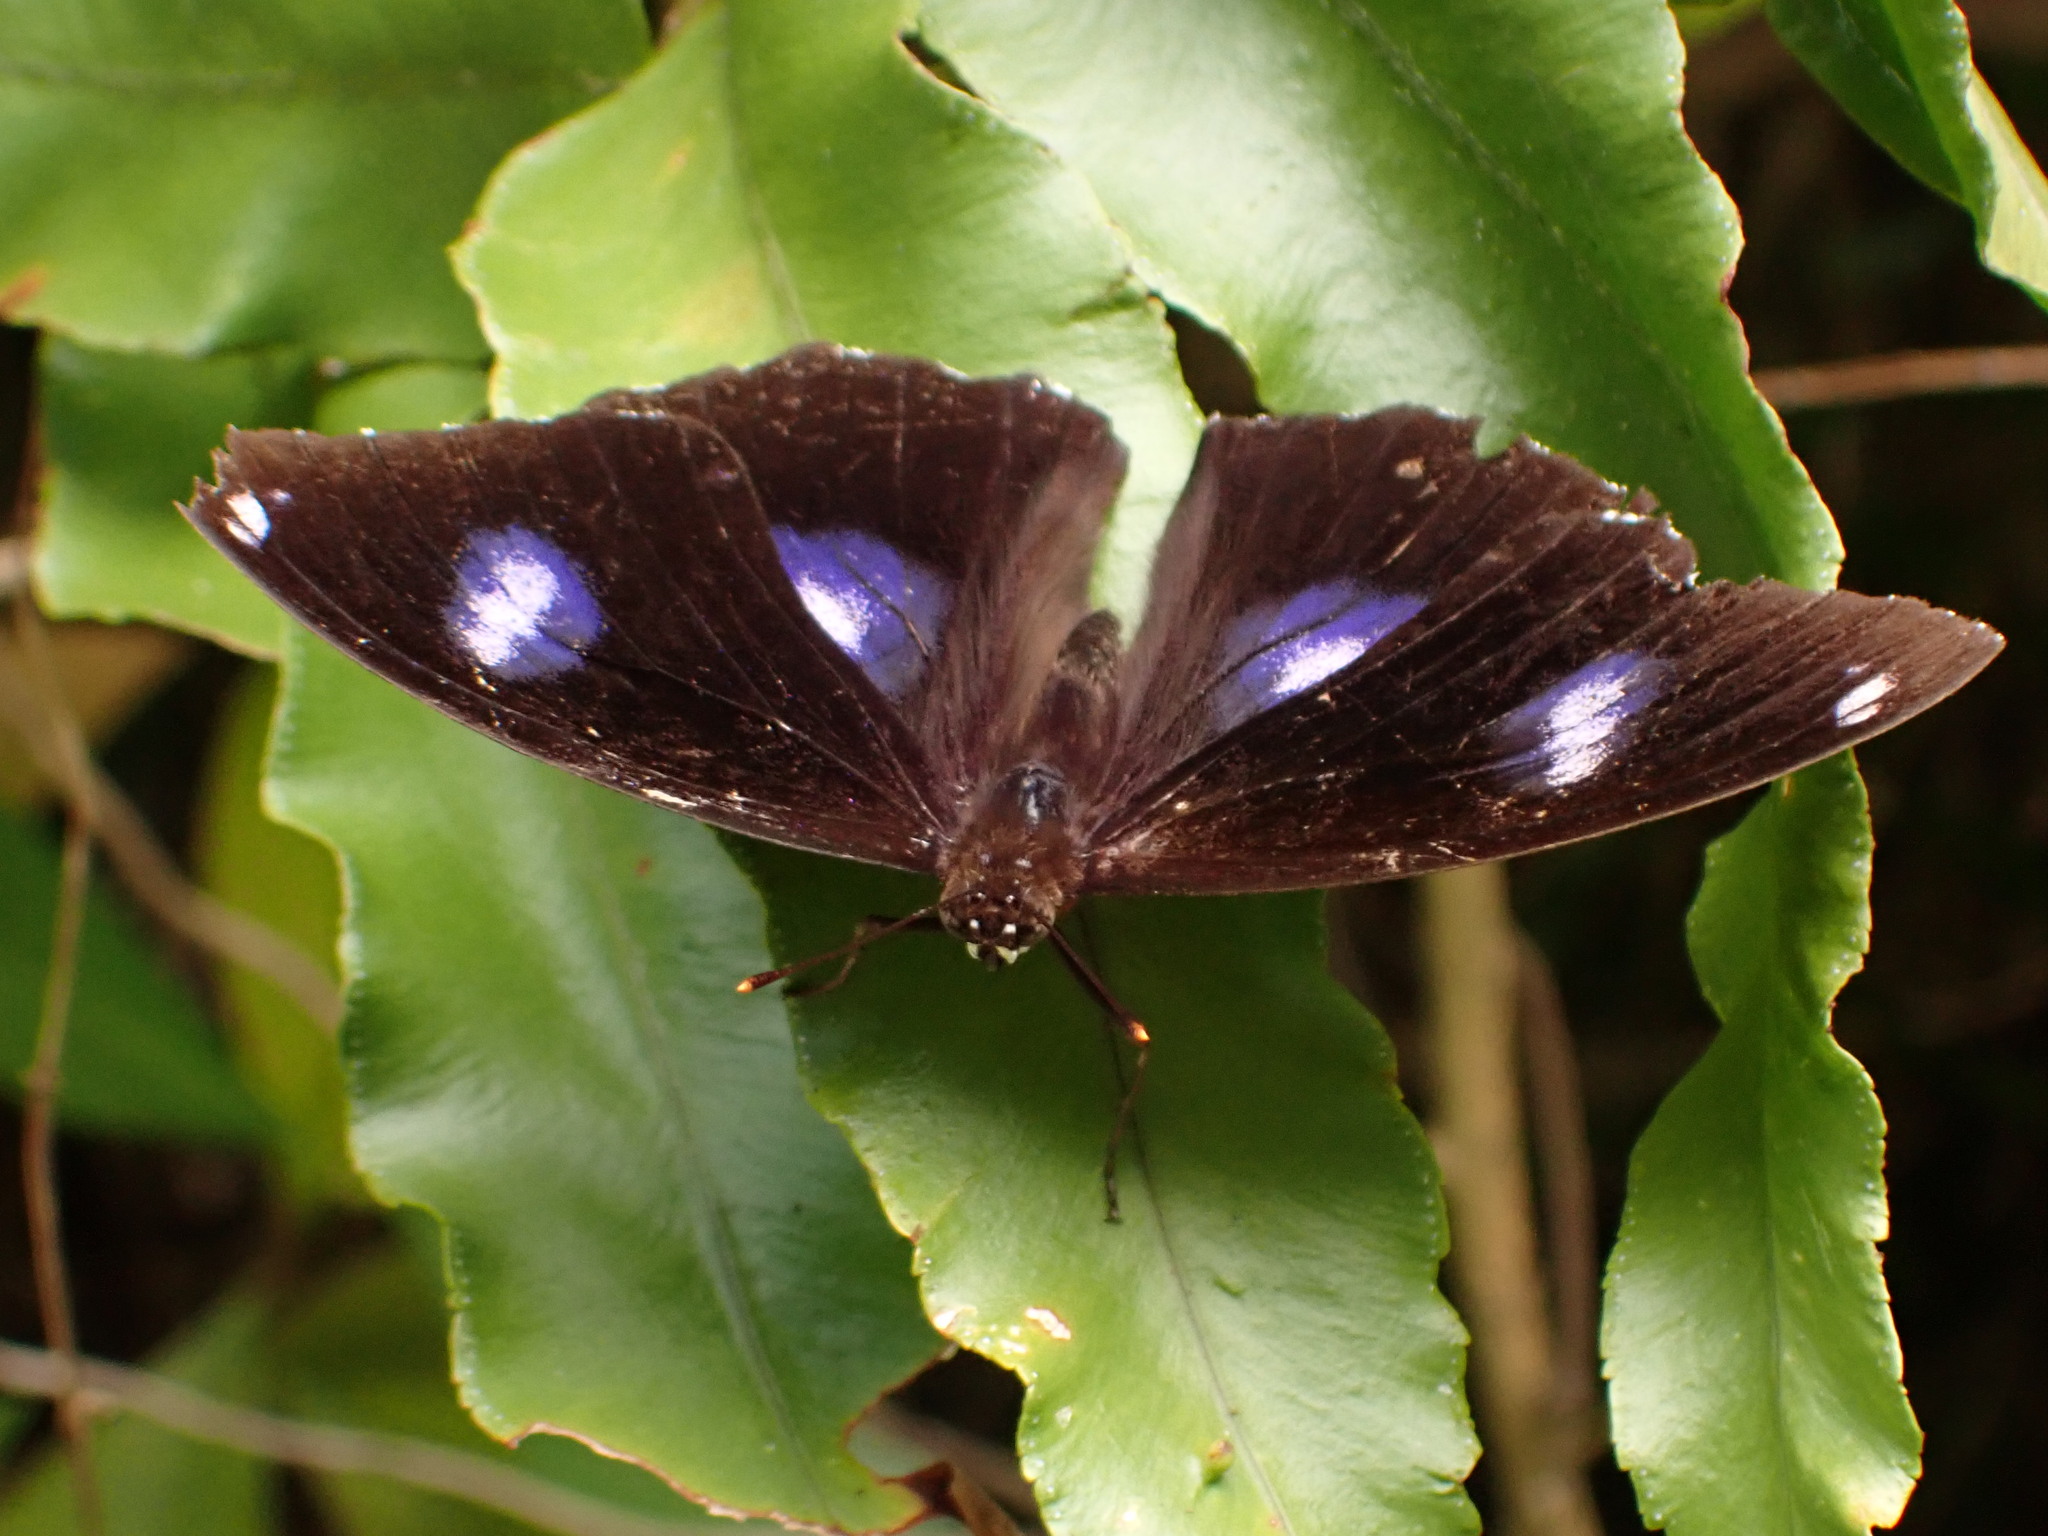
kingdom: Animalia
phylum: Arthropoda
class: Insecta
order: Lepidoptera
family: Nymphalidae
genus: Hypolimnas
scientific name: Hypolimnas bolina
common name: Great eggfly
